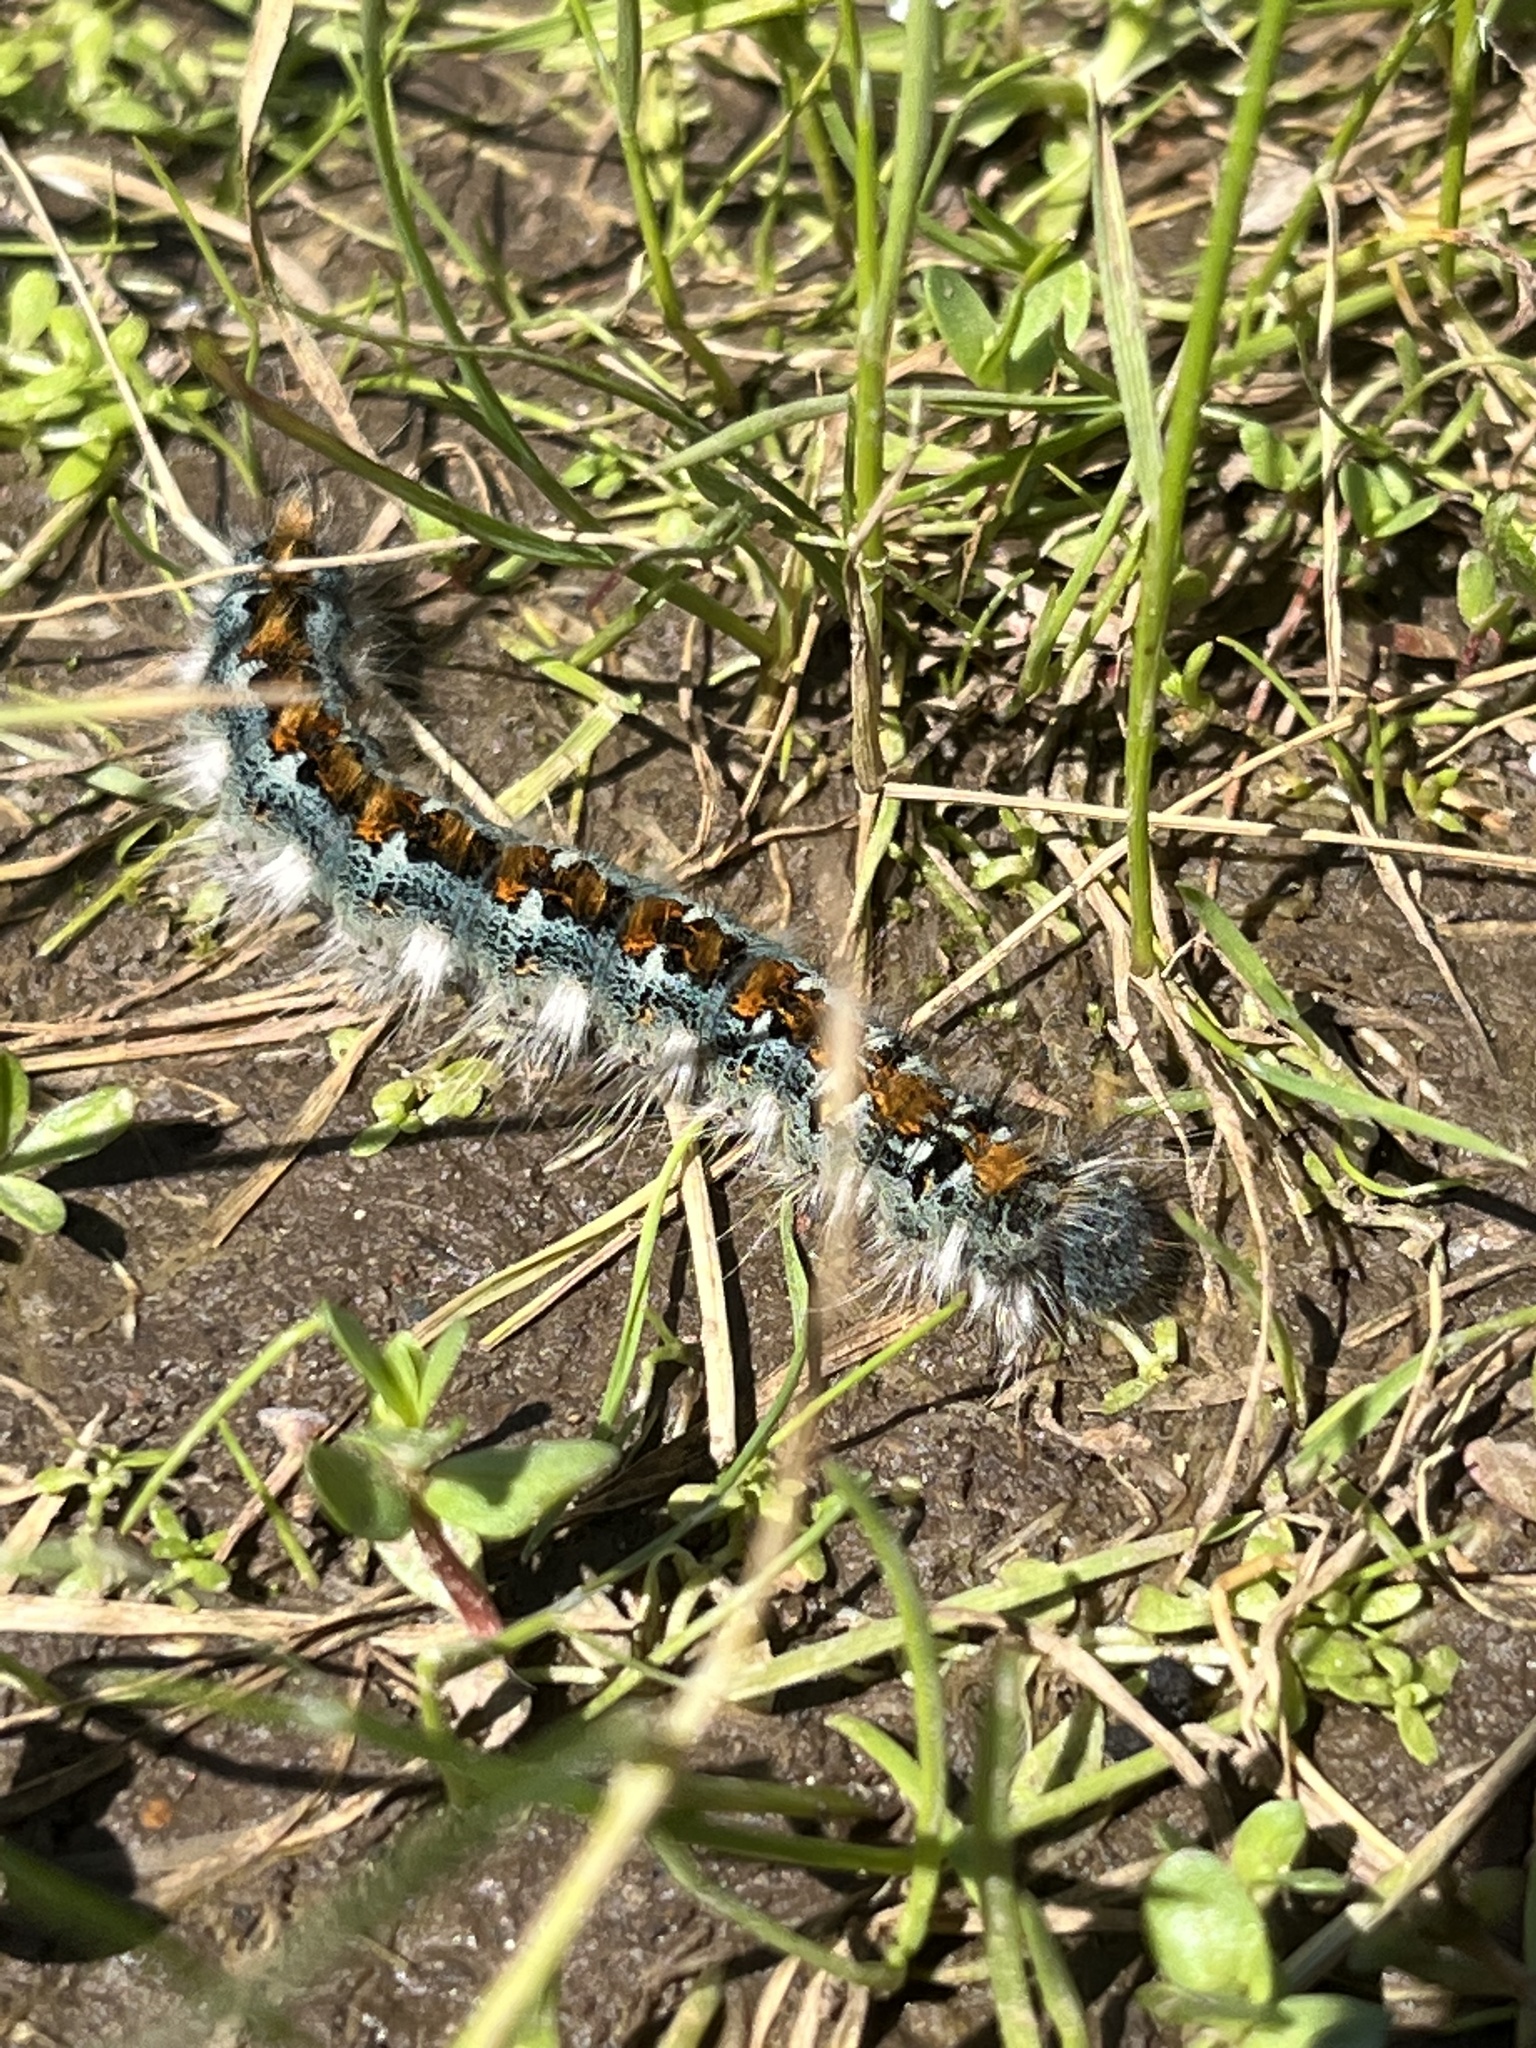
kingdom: Animalia
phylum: Arthropoda
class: Insecta
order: Lepidoptera
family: Lasiocampidae
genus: Malacosoma
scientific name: Malacosoma constricta
